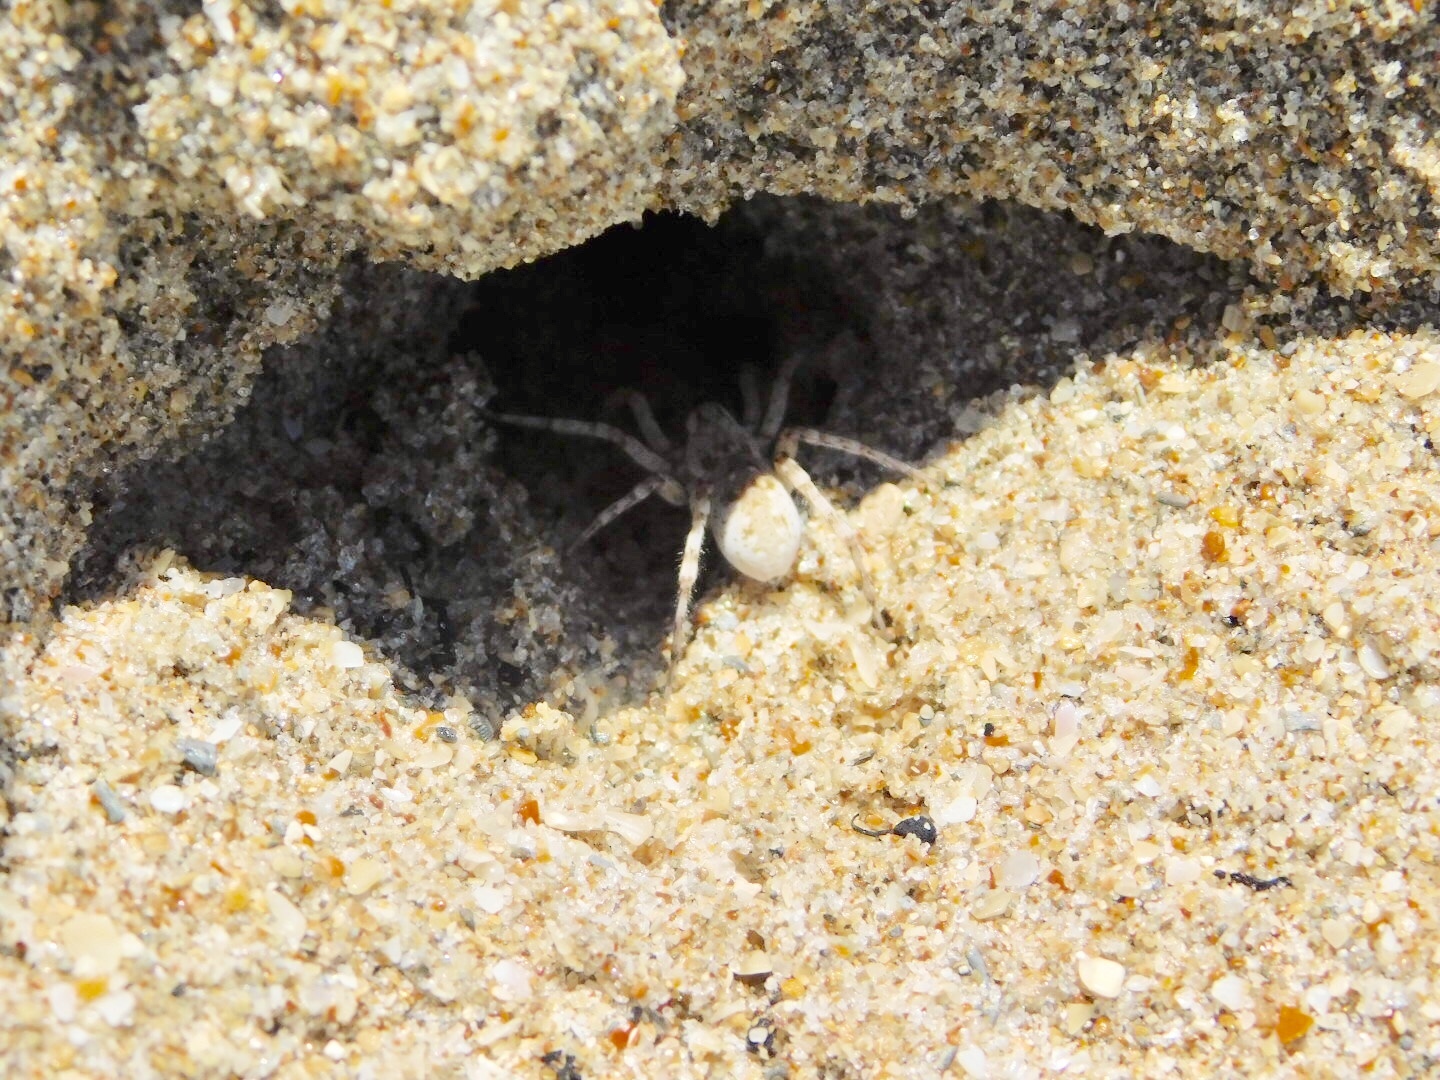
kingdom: Animalia
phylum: Arthropoda
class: Arachnida
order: Araneae
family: Lycosidae
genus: Arctosa
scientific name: Arctosa littoralis
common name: Wolf spiders
